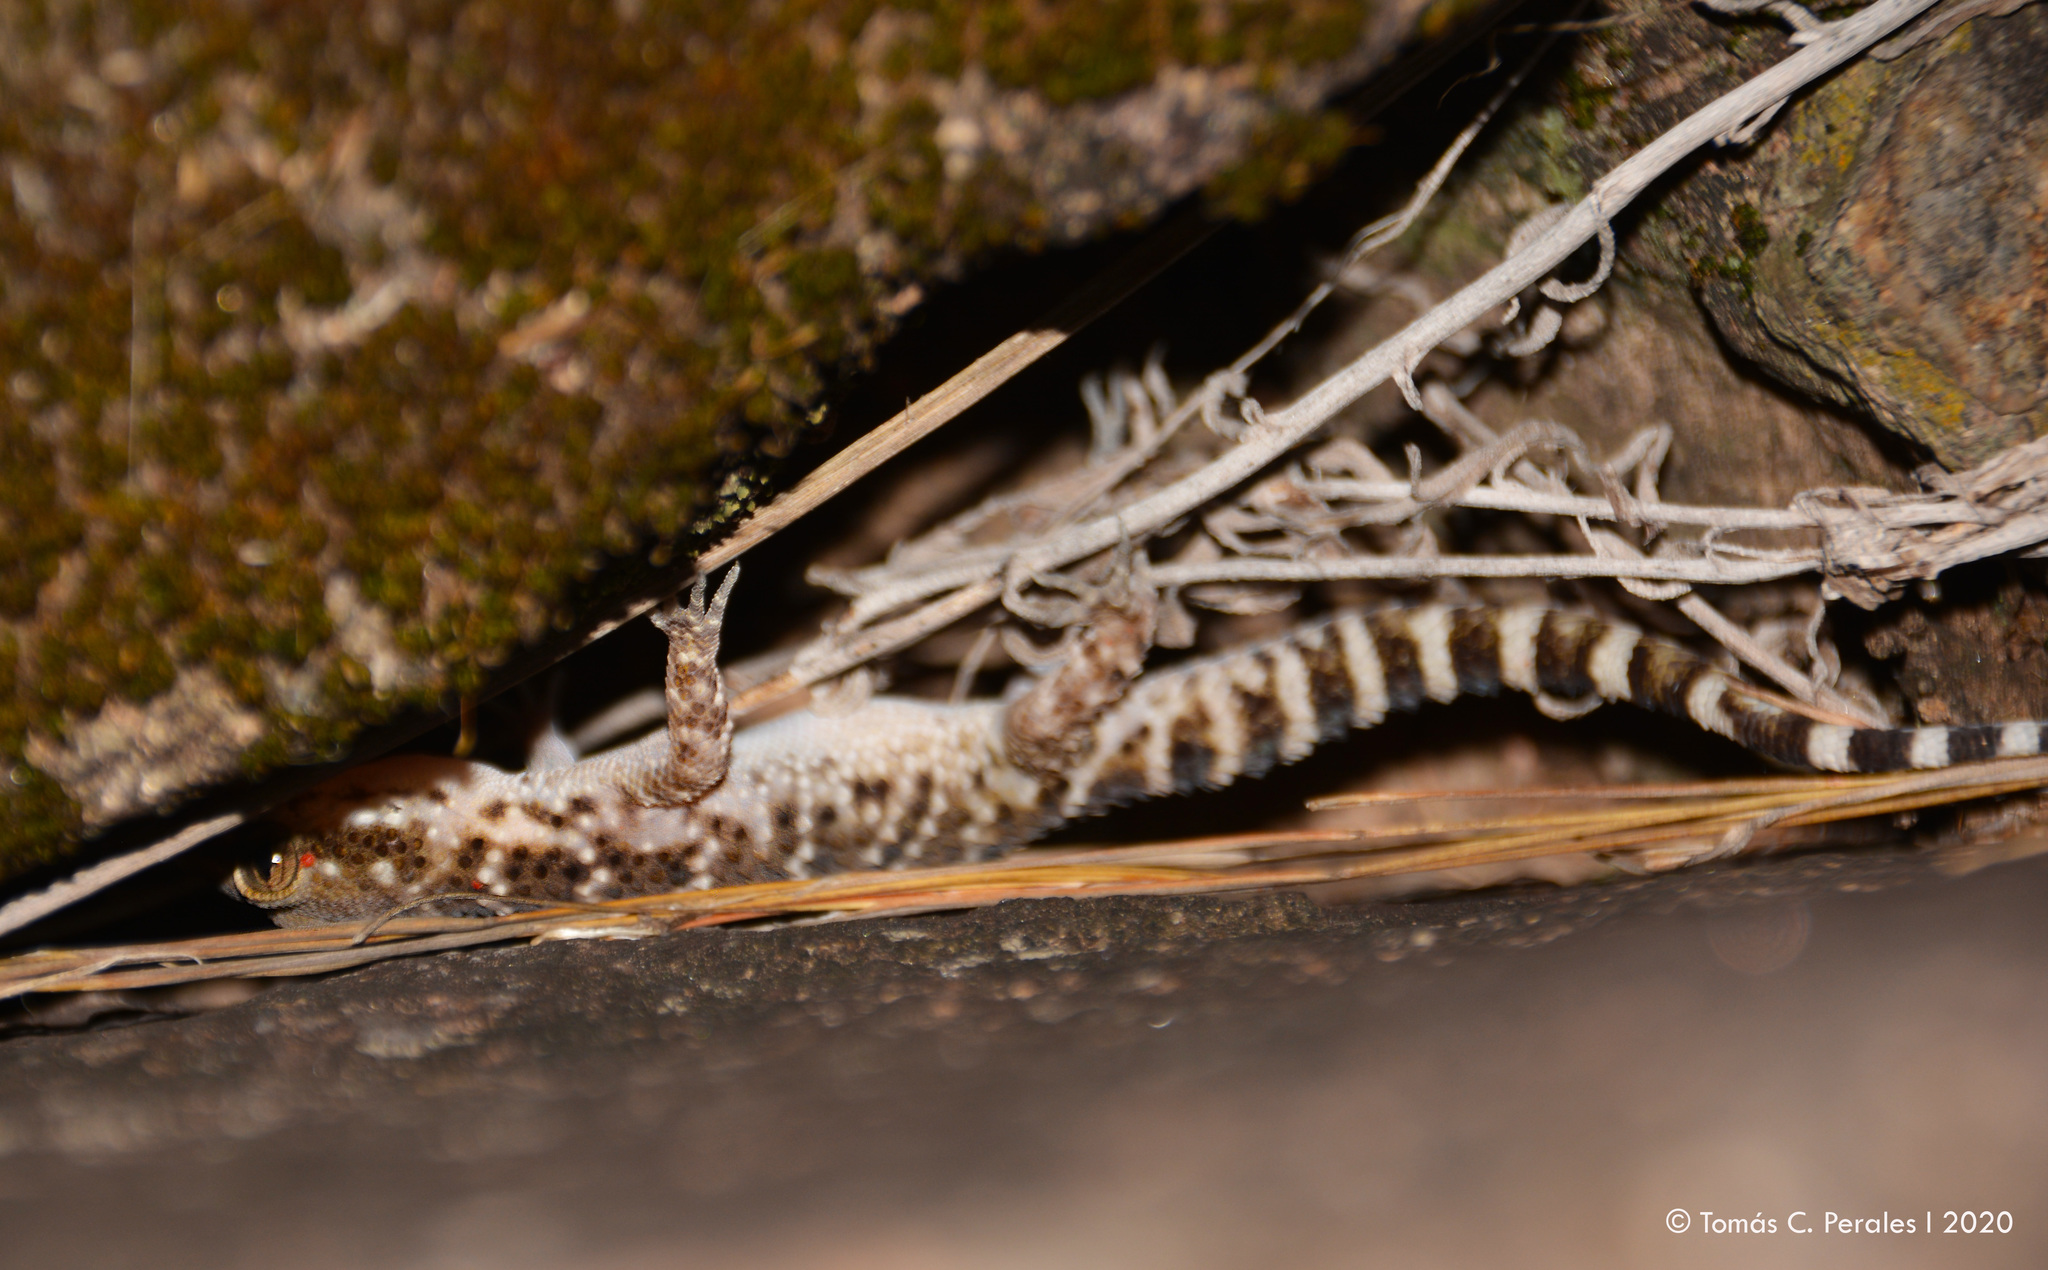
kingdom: Animalia
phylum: Chordata
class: Squamata
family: Phyllodactylidae
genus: Homonota
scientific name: Homonota horrida
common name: South american marked gecko
